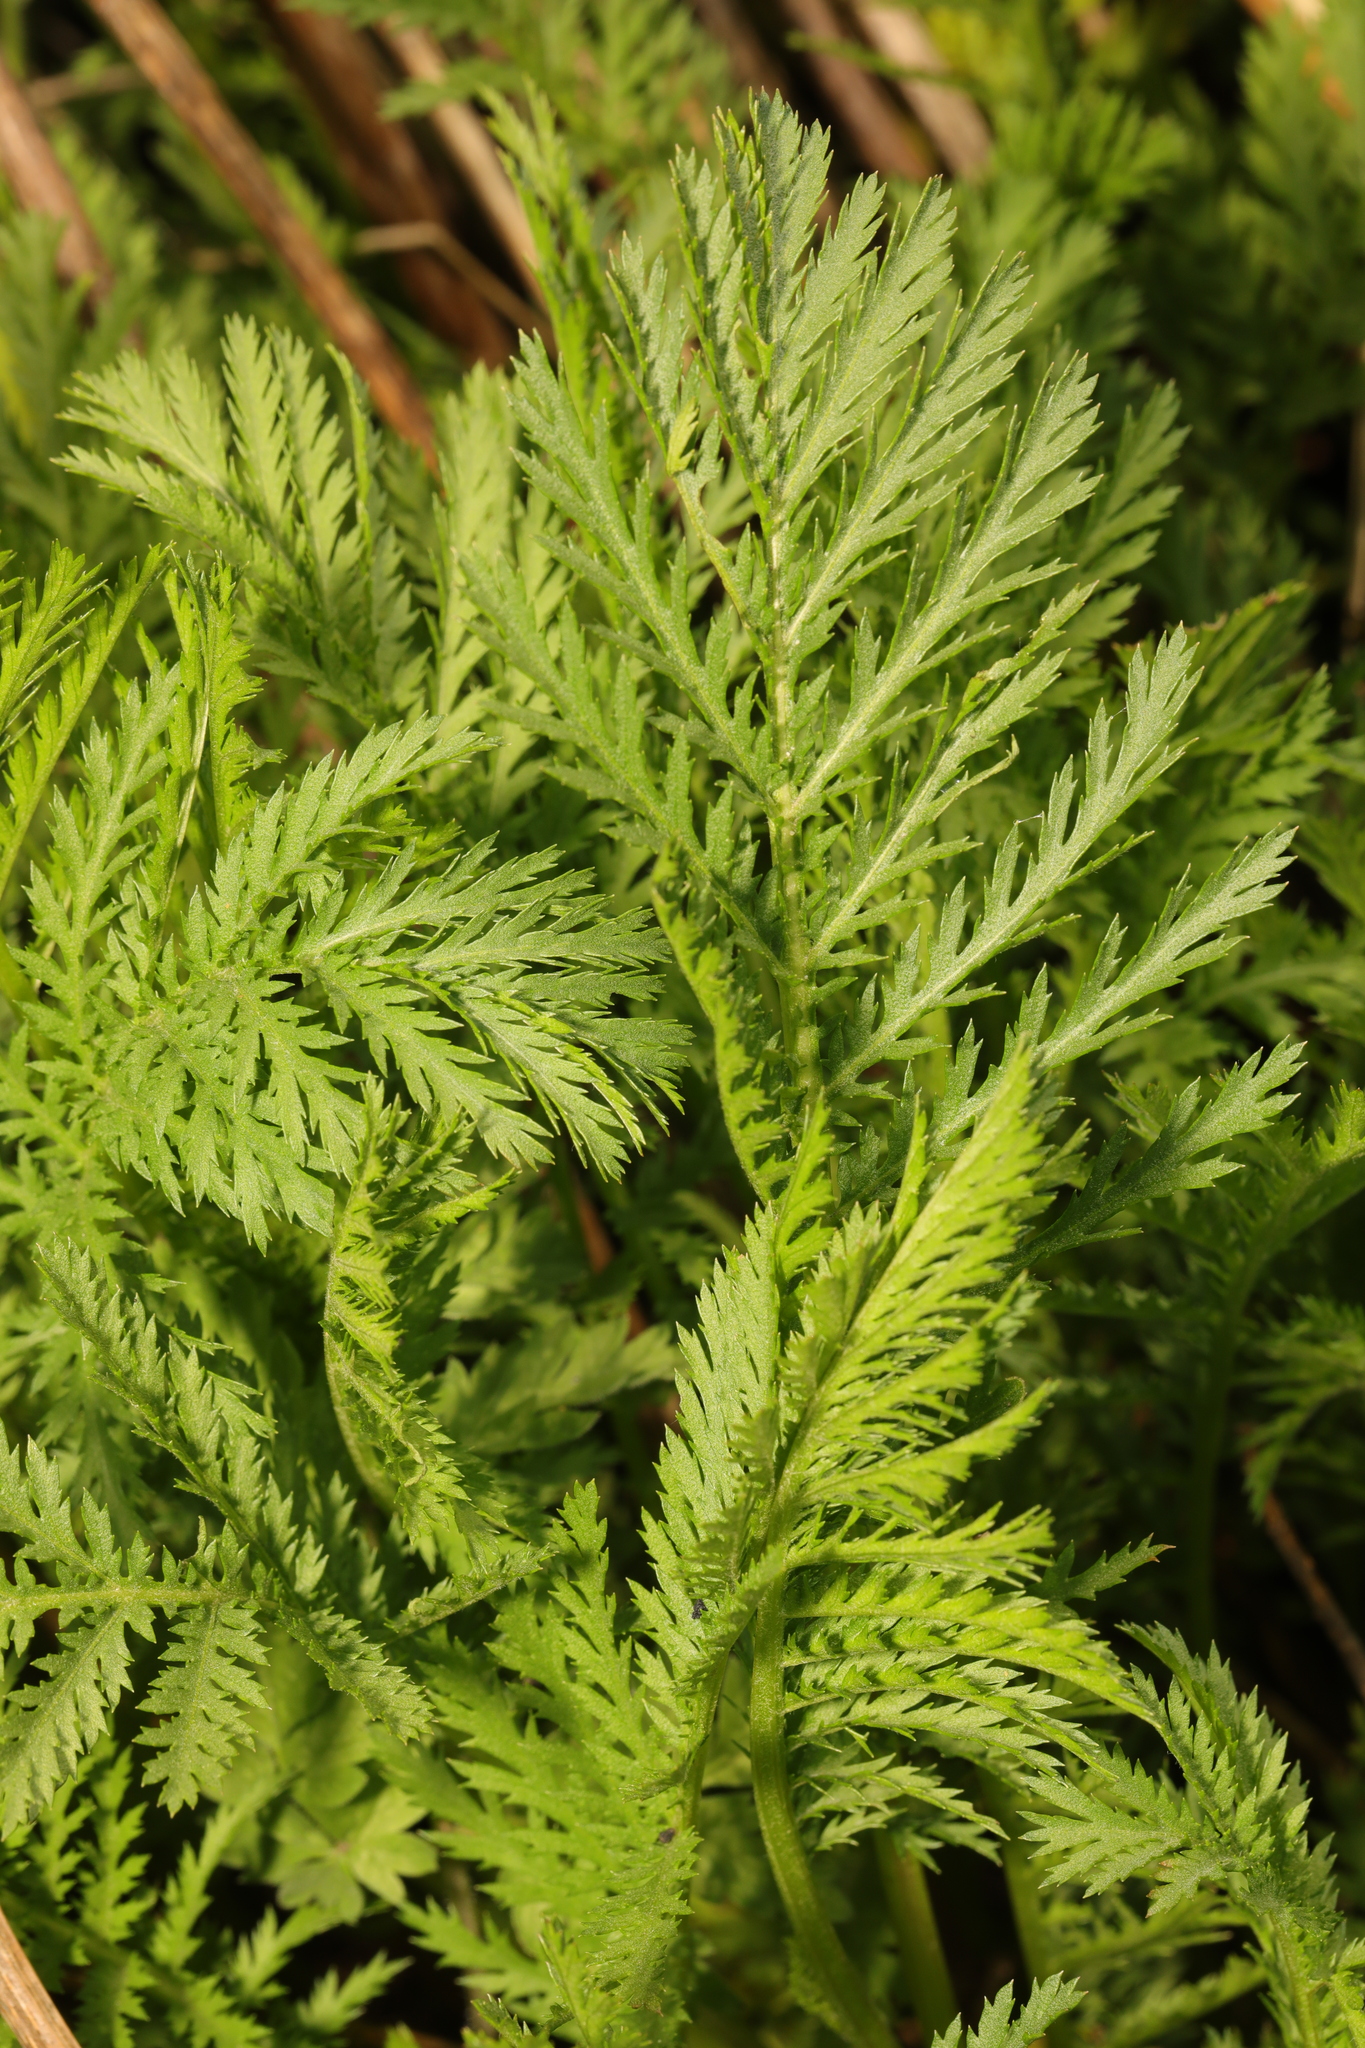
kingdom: Plantae
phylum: Tracheophyta
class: Magnoliopsida
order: Asterales
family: Asteraceae
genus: Tanacetum
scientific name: Tanacetum vulgare
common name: Common tansy
